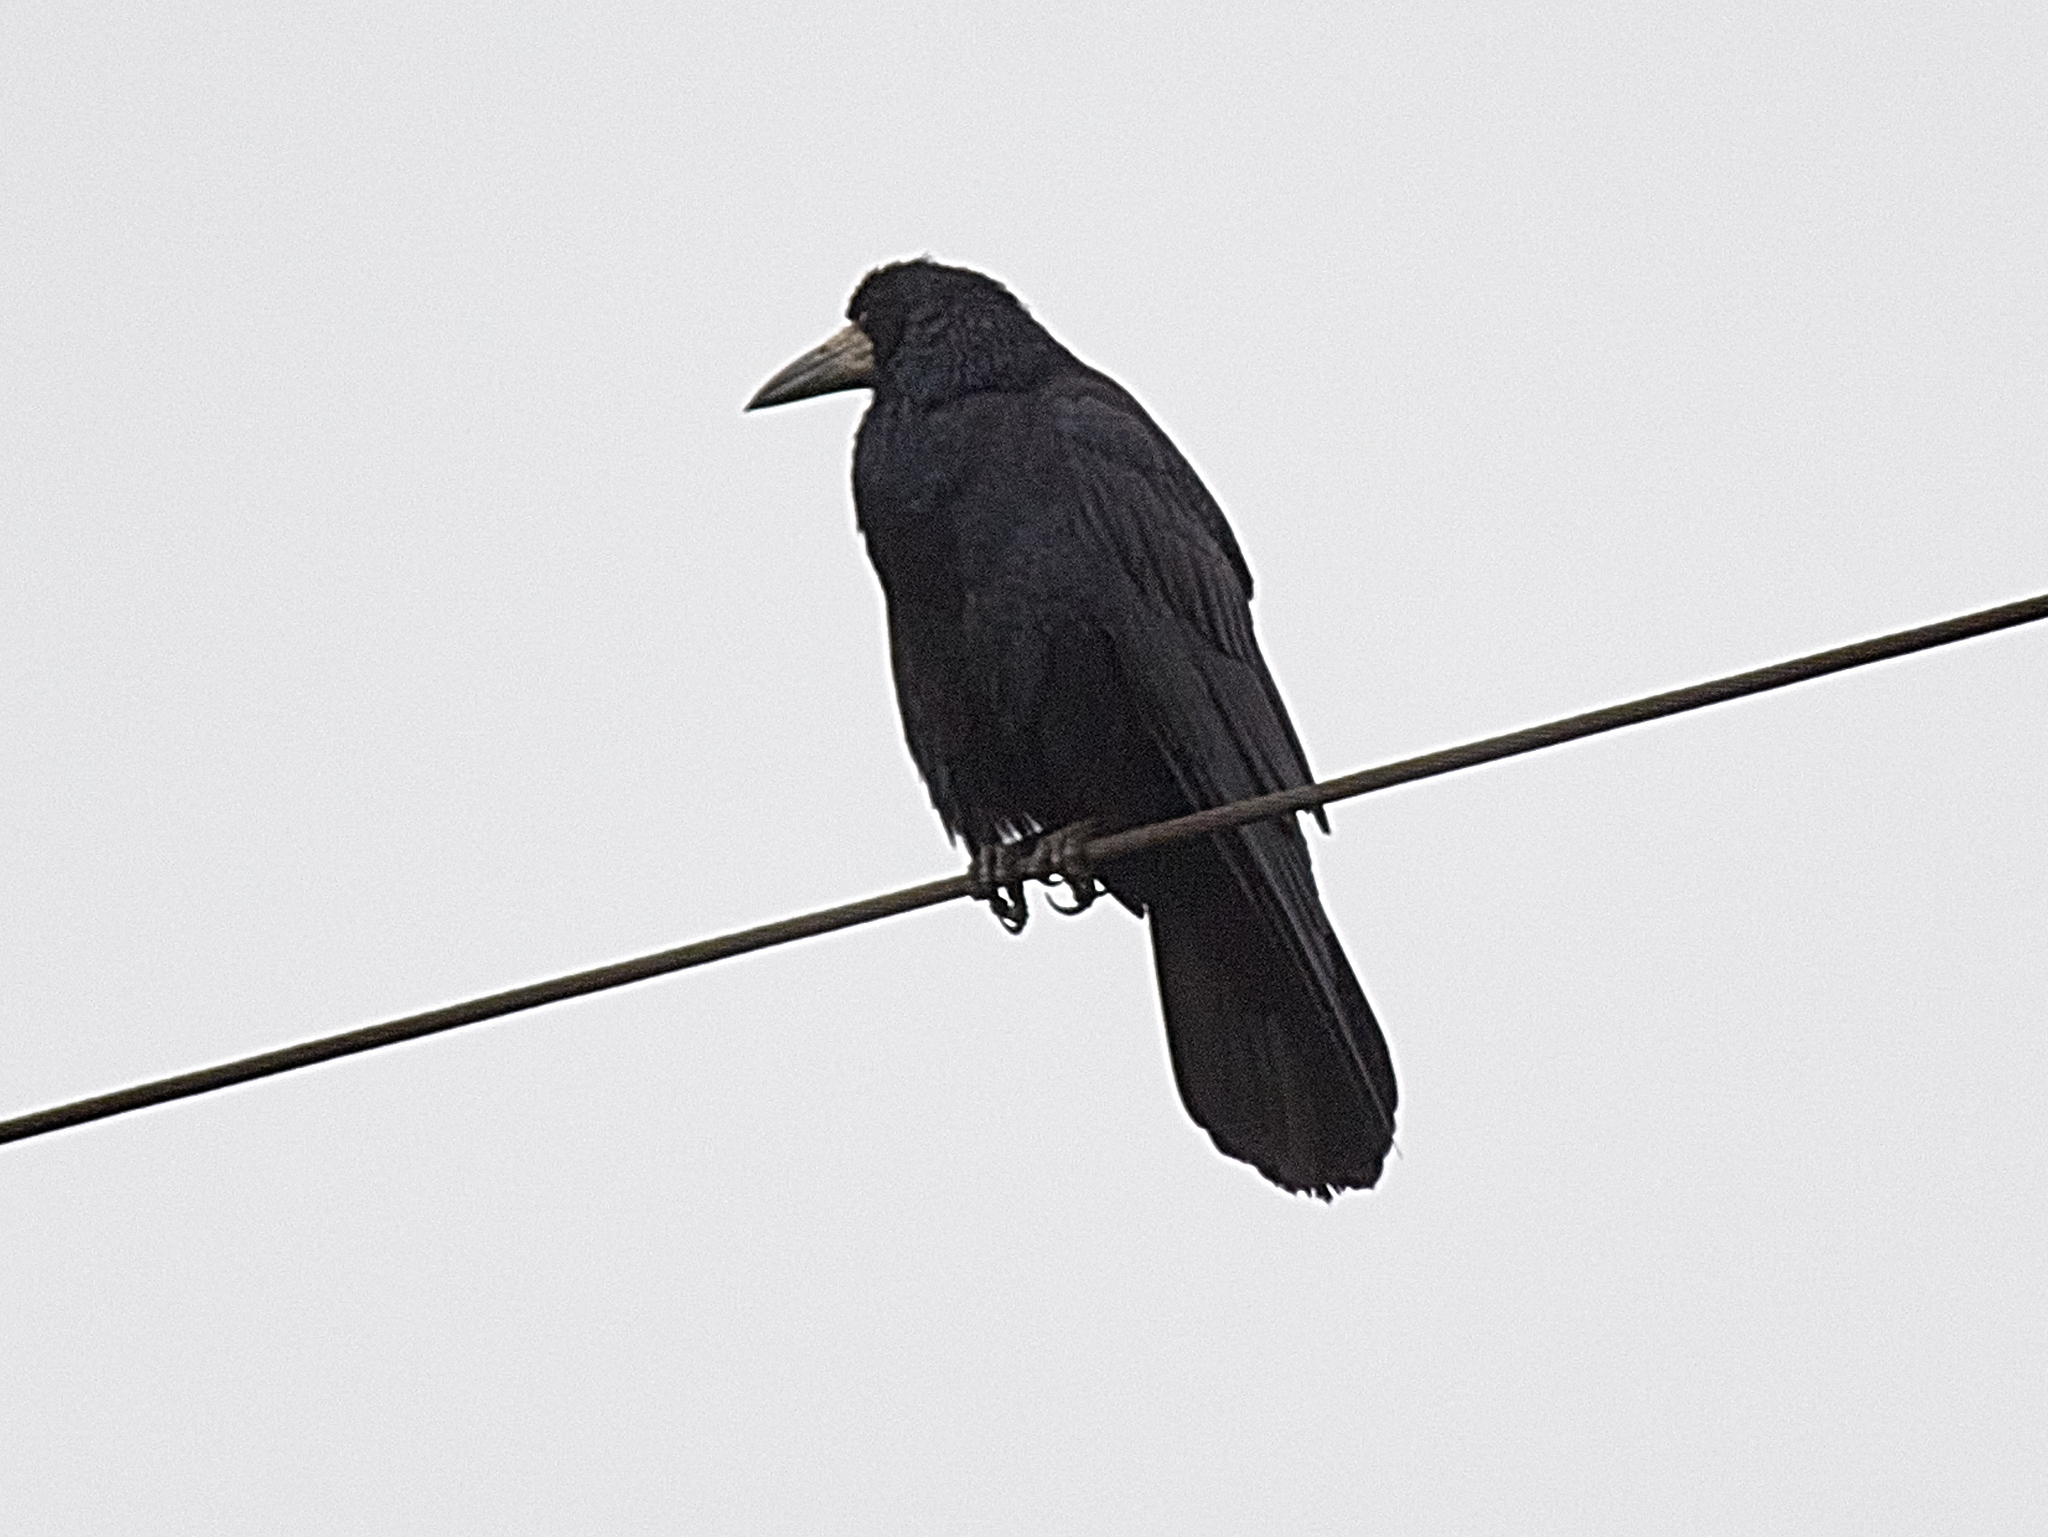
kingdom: Animalia
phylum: Chordata
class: Aves
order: Passeriformes
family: Corvidae
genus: Corvus
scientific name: Corvus frugilegus
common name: Rook
